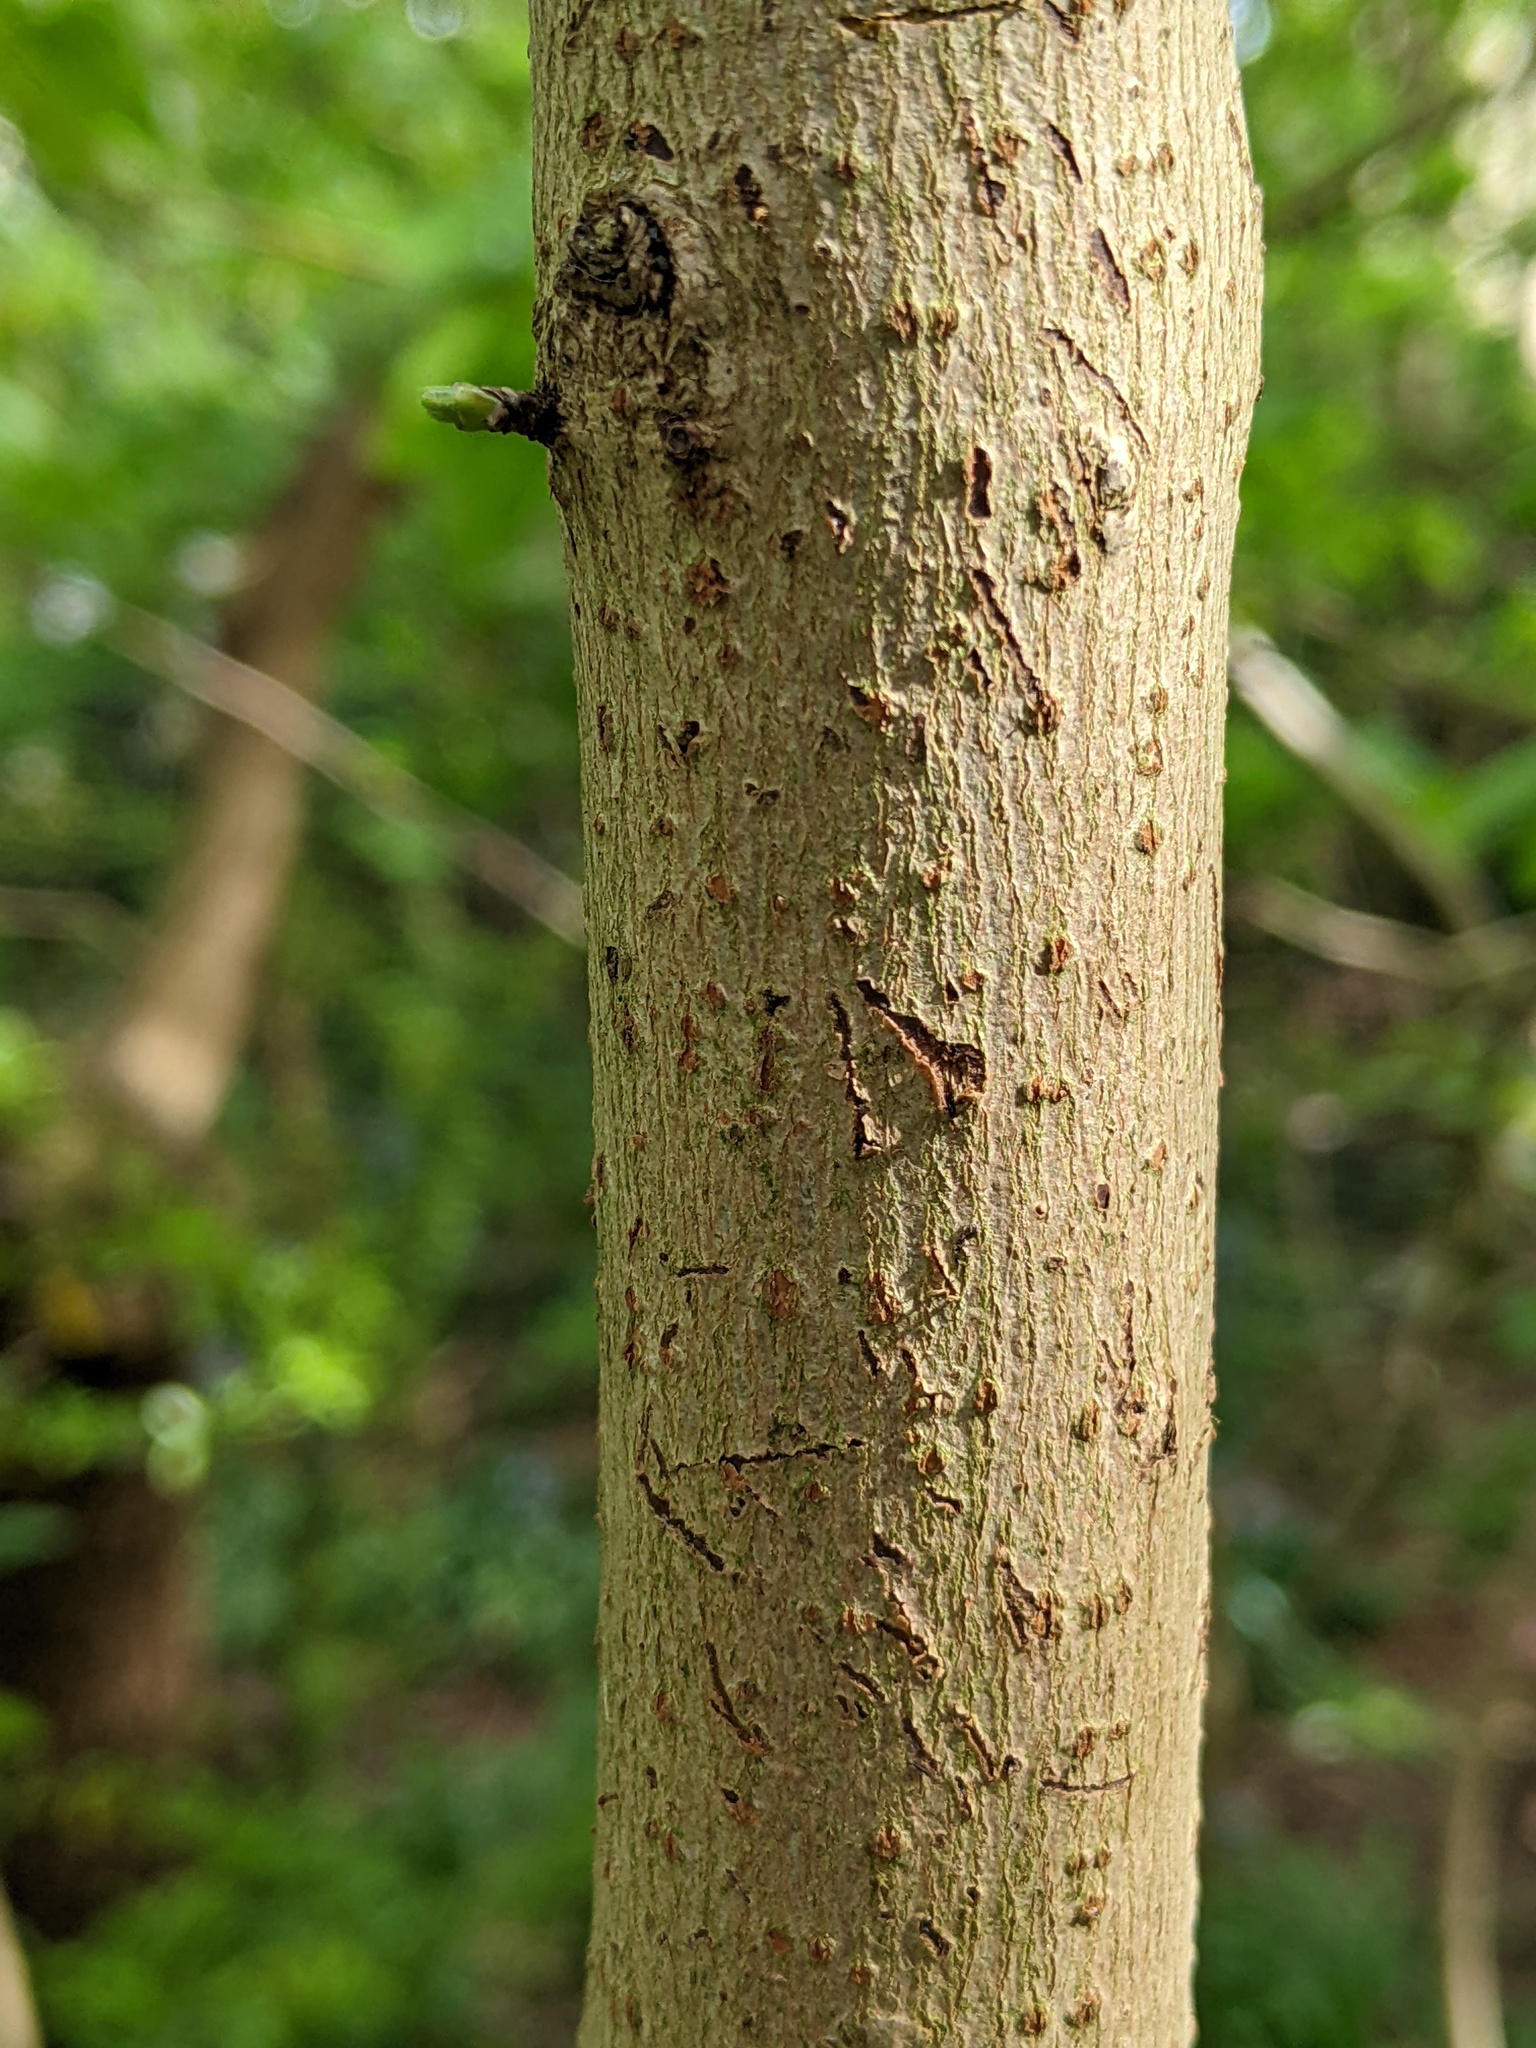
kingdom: Plantae
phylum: Tracheophyta
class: Magnoliopsida
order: Sapindales
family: Sapindaceae
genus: Acer
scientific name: Acer campestre
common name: Field maple
